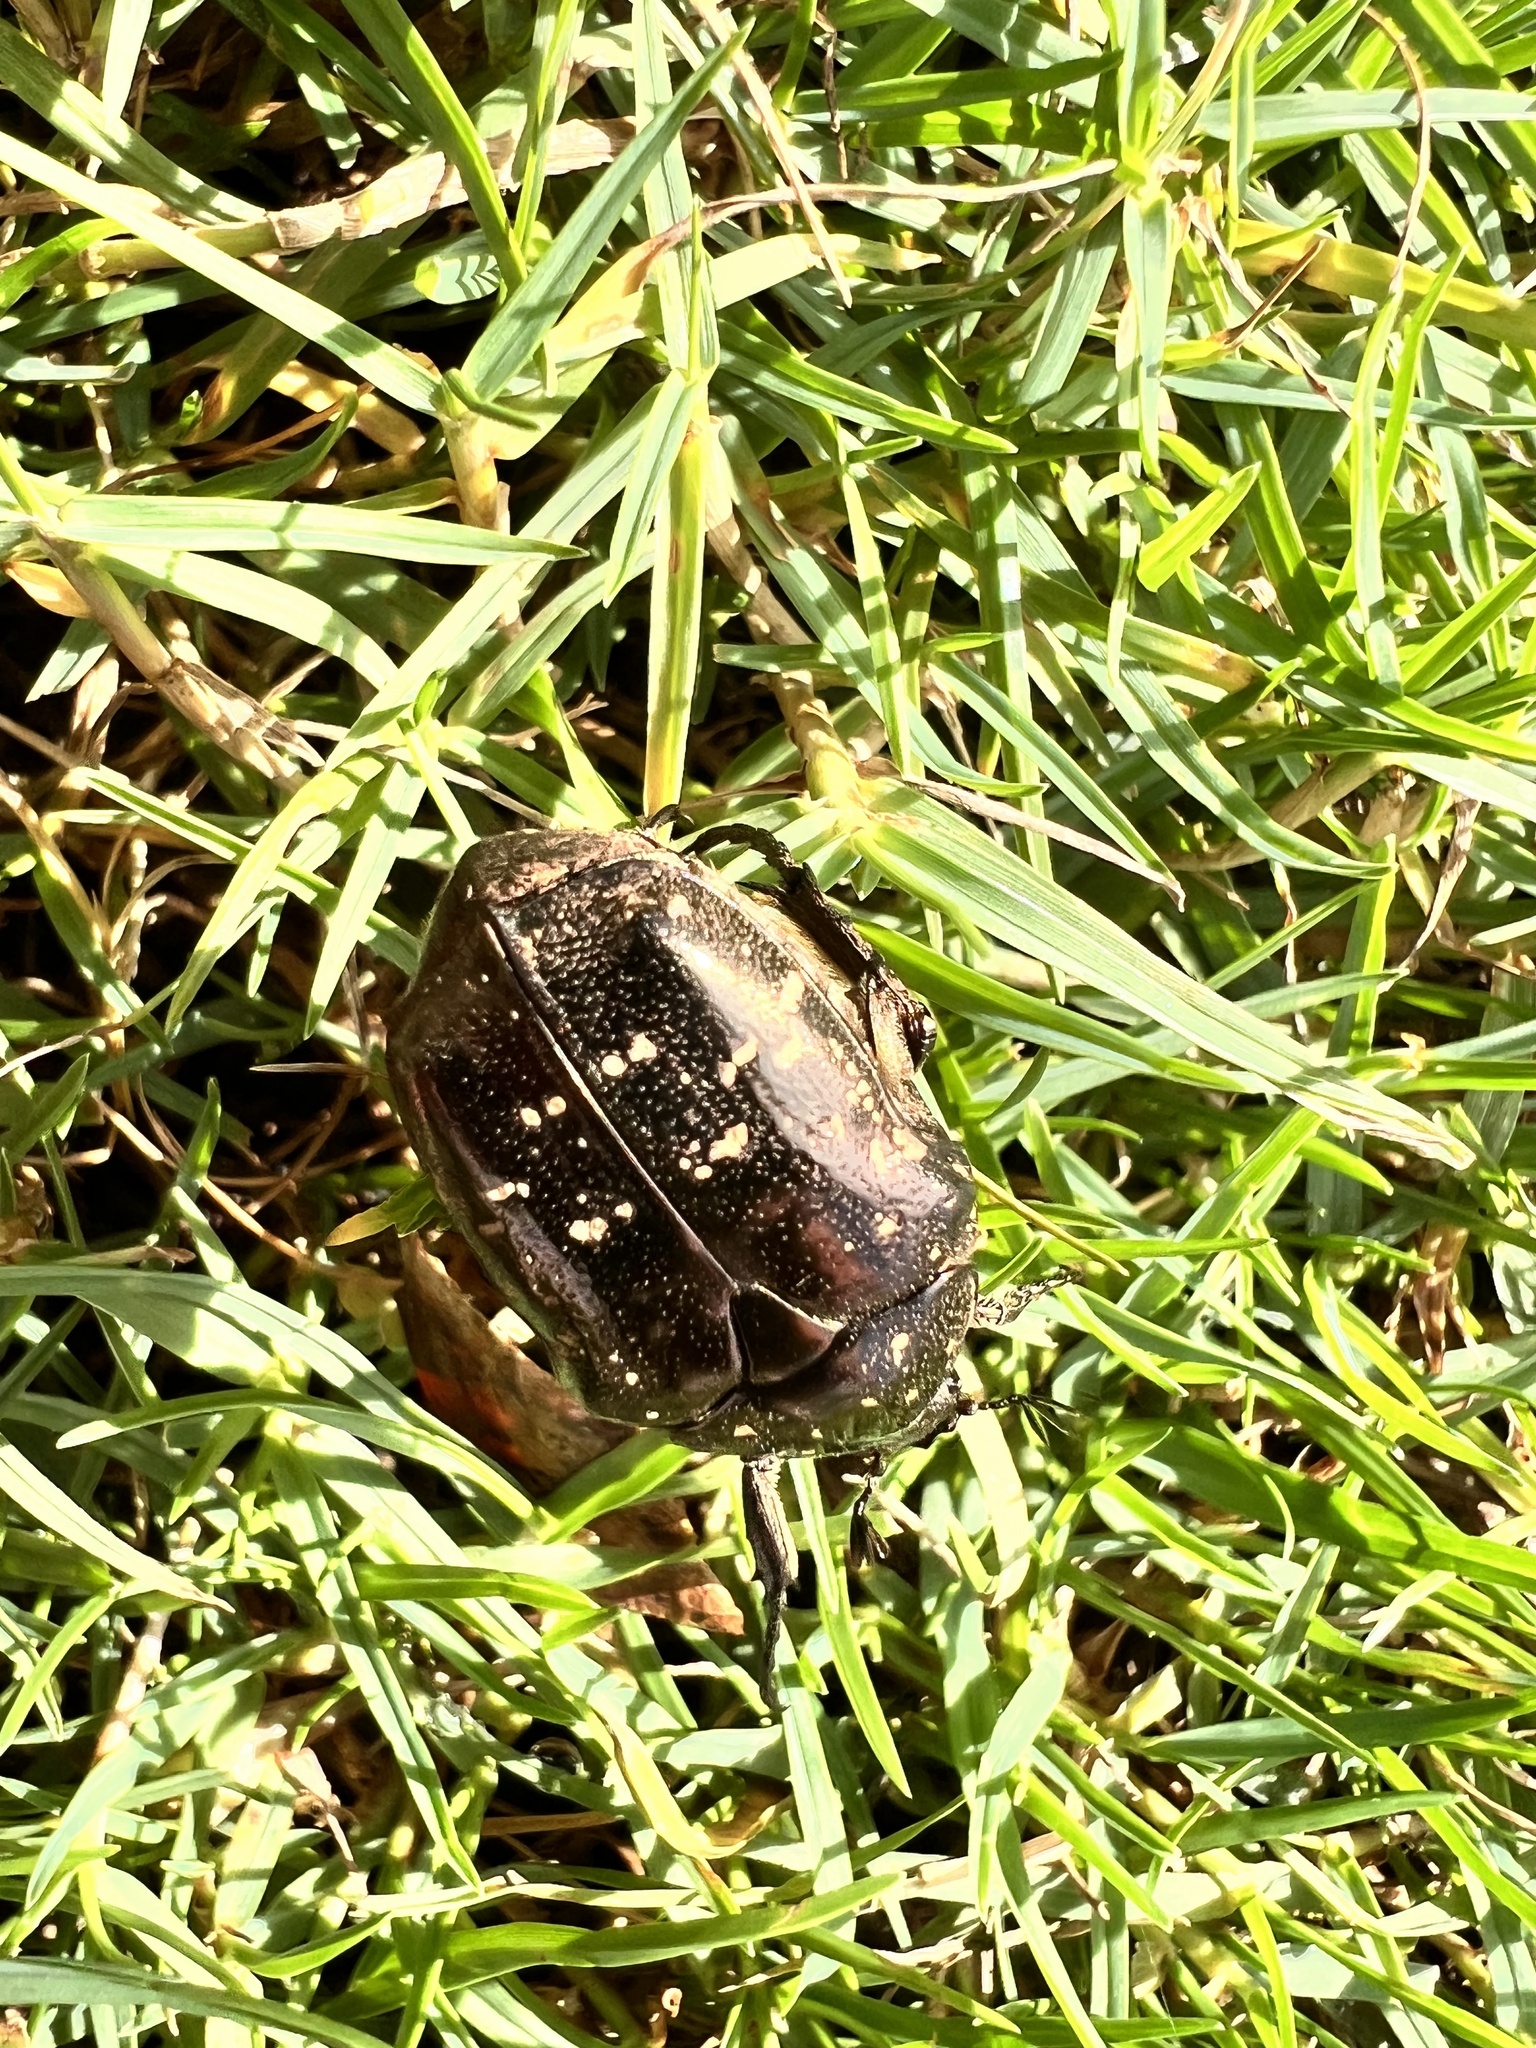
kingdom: Animalia
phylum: Arthropoda
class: Insecta
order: Coleoptera
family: Scarabaeidae
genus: Protaetia
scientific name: Protaetia orientalis
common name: Oriental flower beetle
